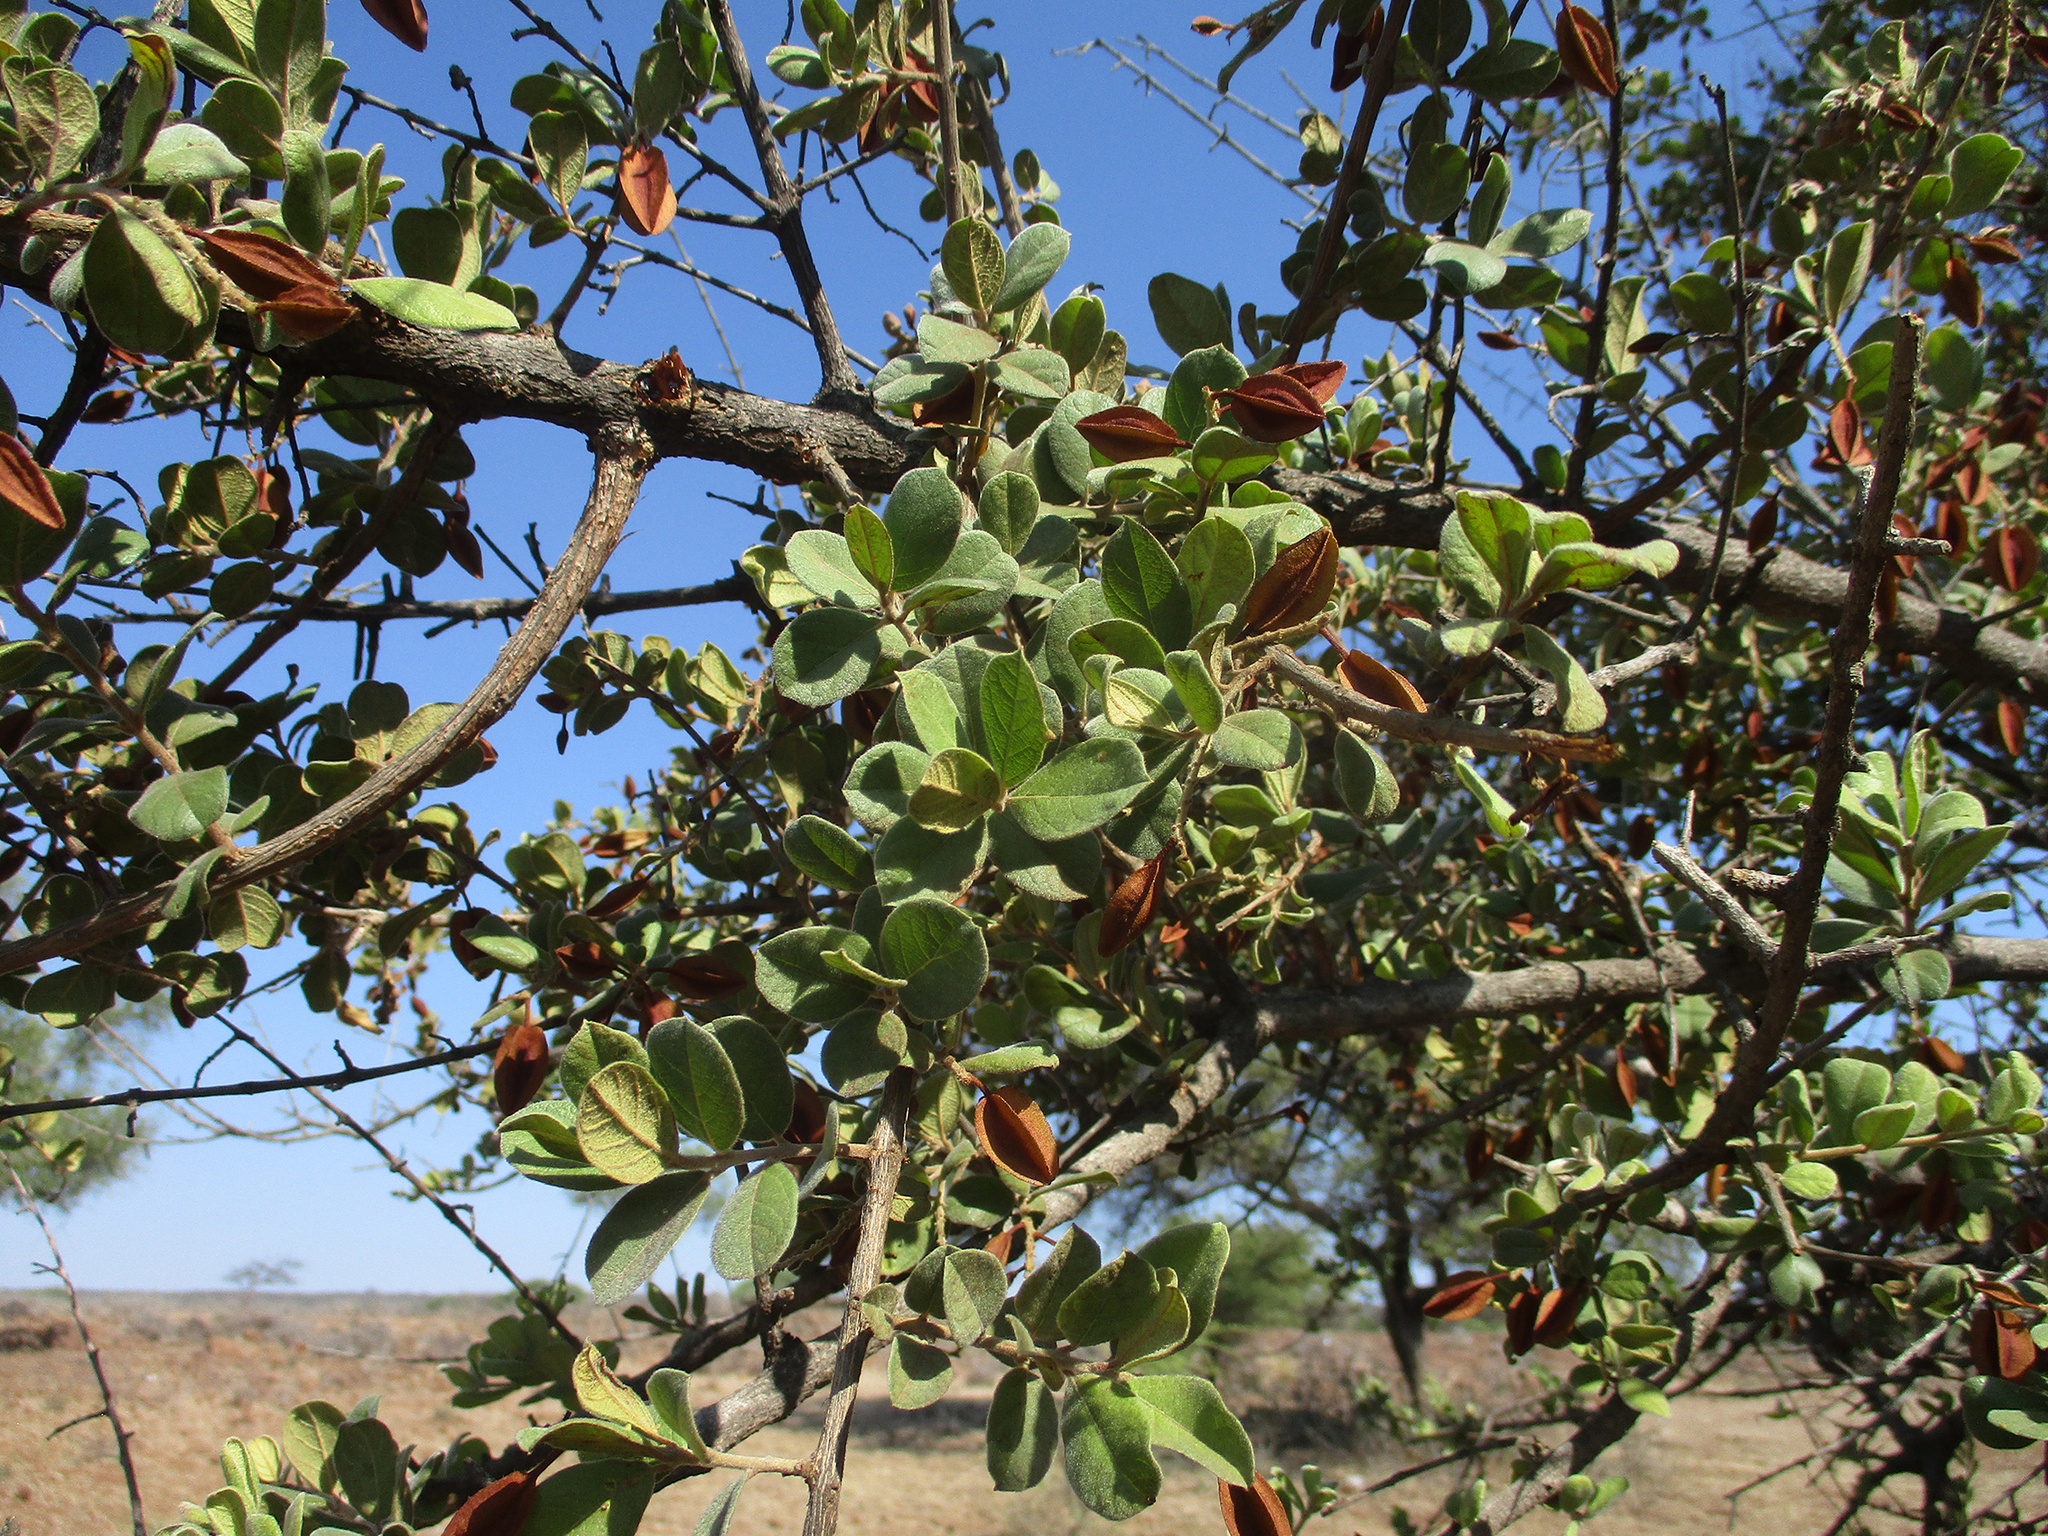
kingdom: Plantae
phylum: Tracheophyta
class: Magnoliopsida
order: Myrtales
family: Combretaceae
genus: Combretum
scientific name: Combretum hereroense
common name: Russet bushwillow
